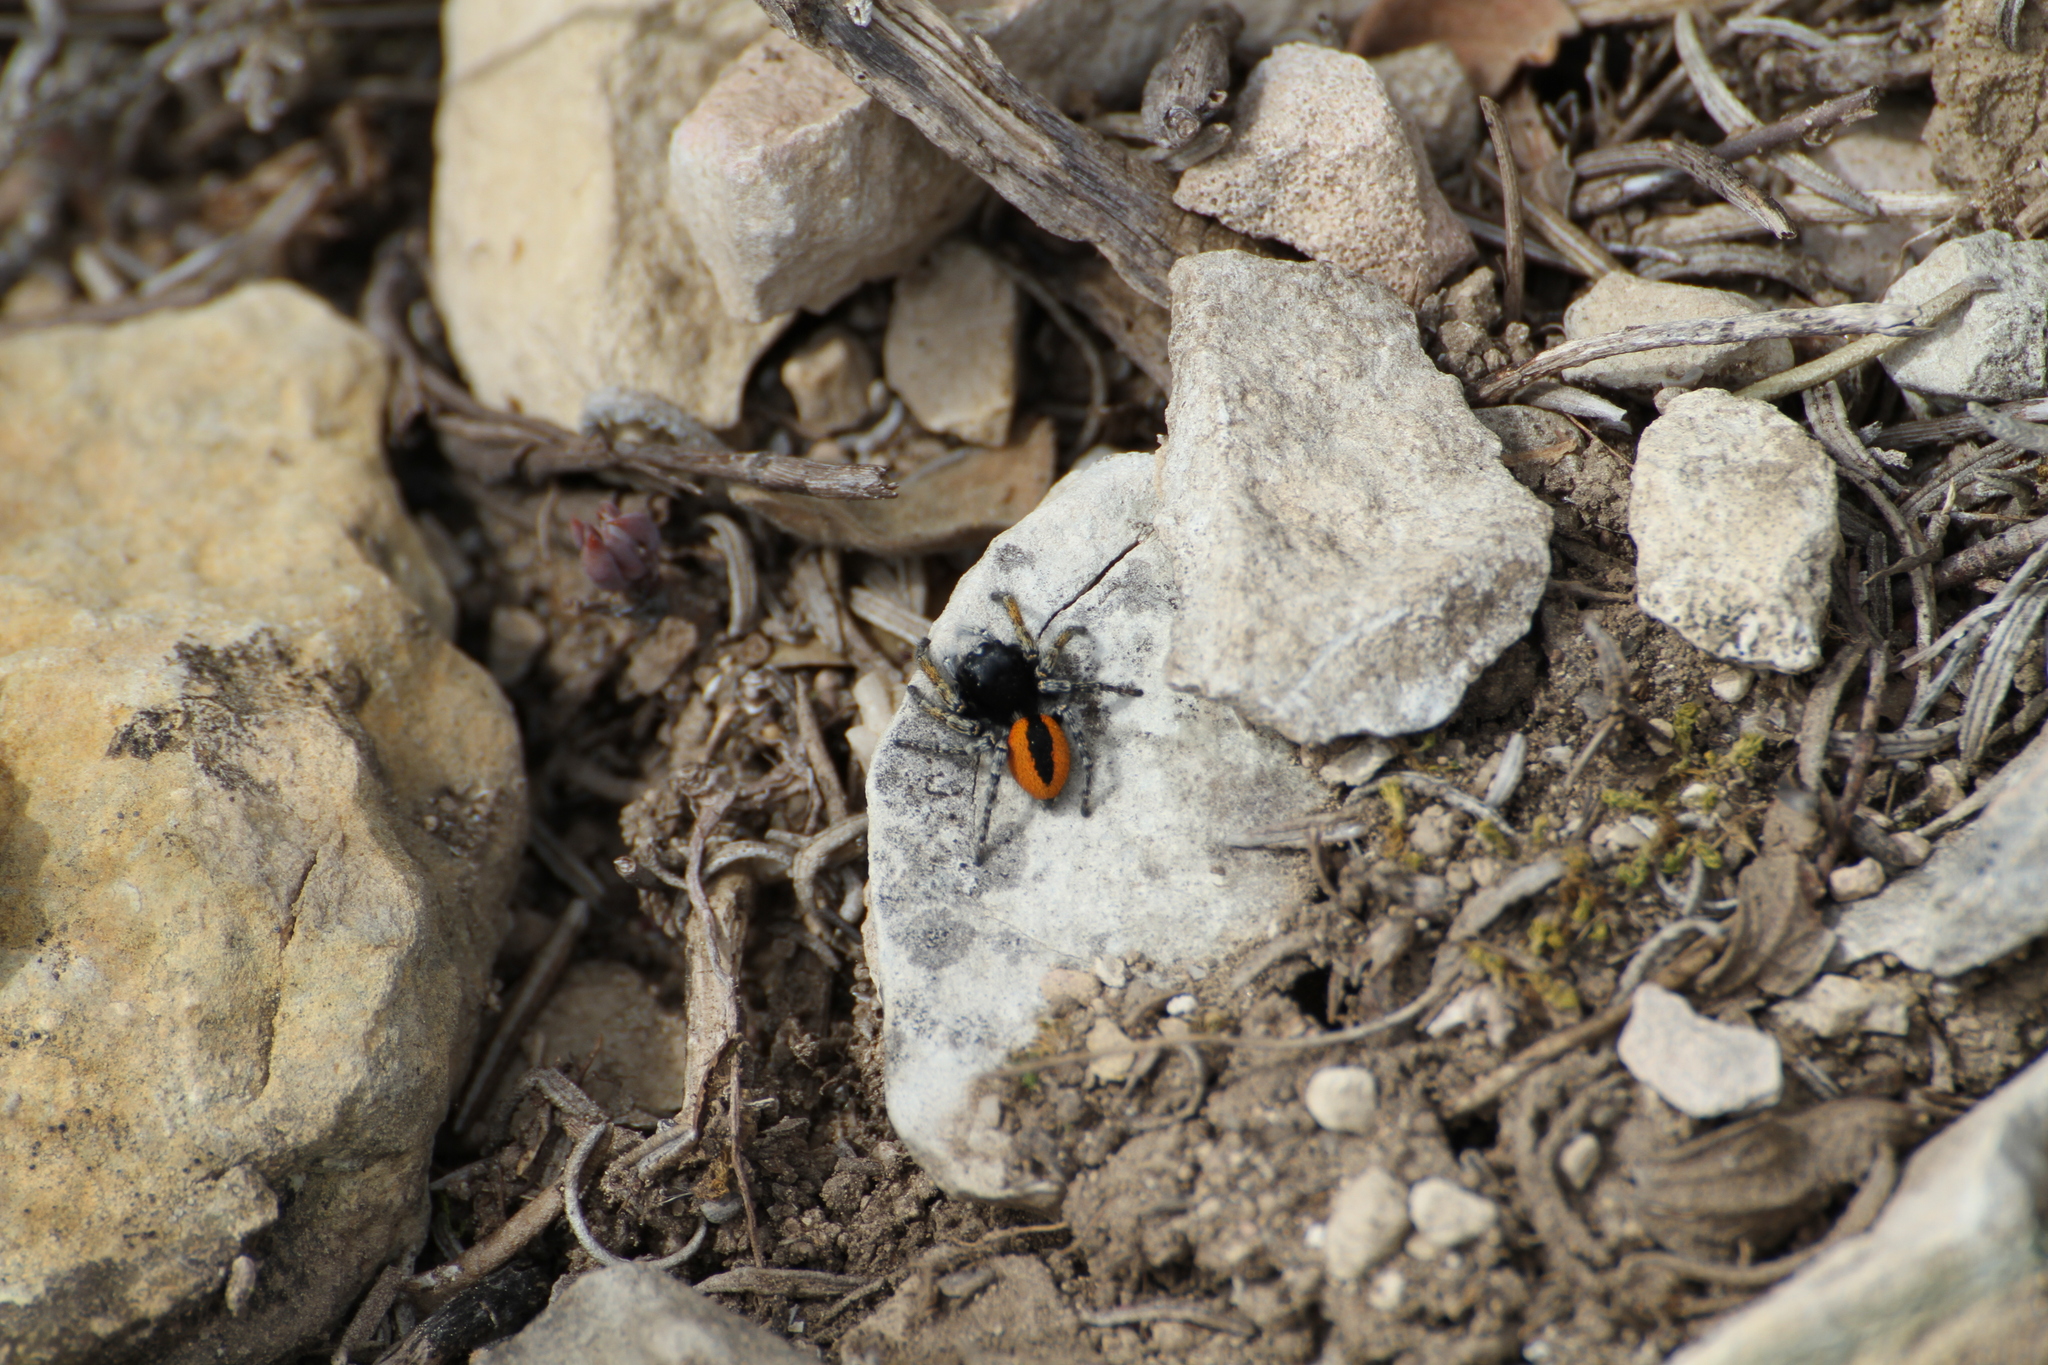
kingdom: Animalia
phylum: Arthropoda
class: Arachnida
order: Araneae
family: Salticidae
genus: Philaeus
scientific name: Philaeus chrysops
